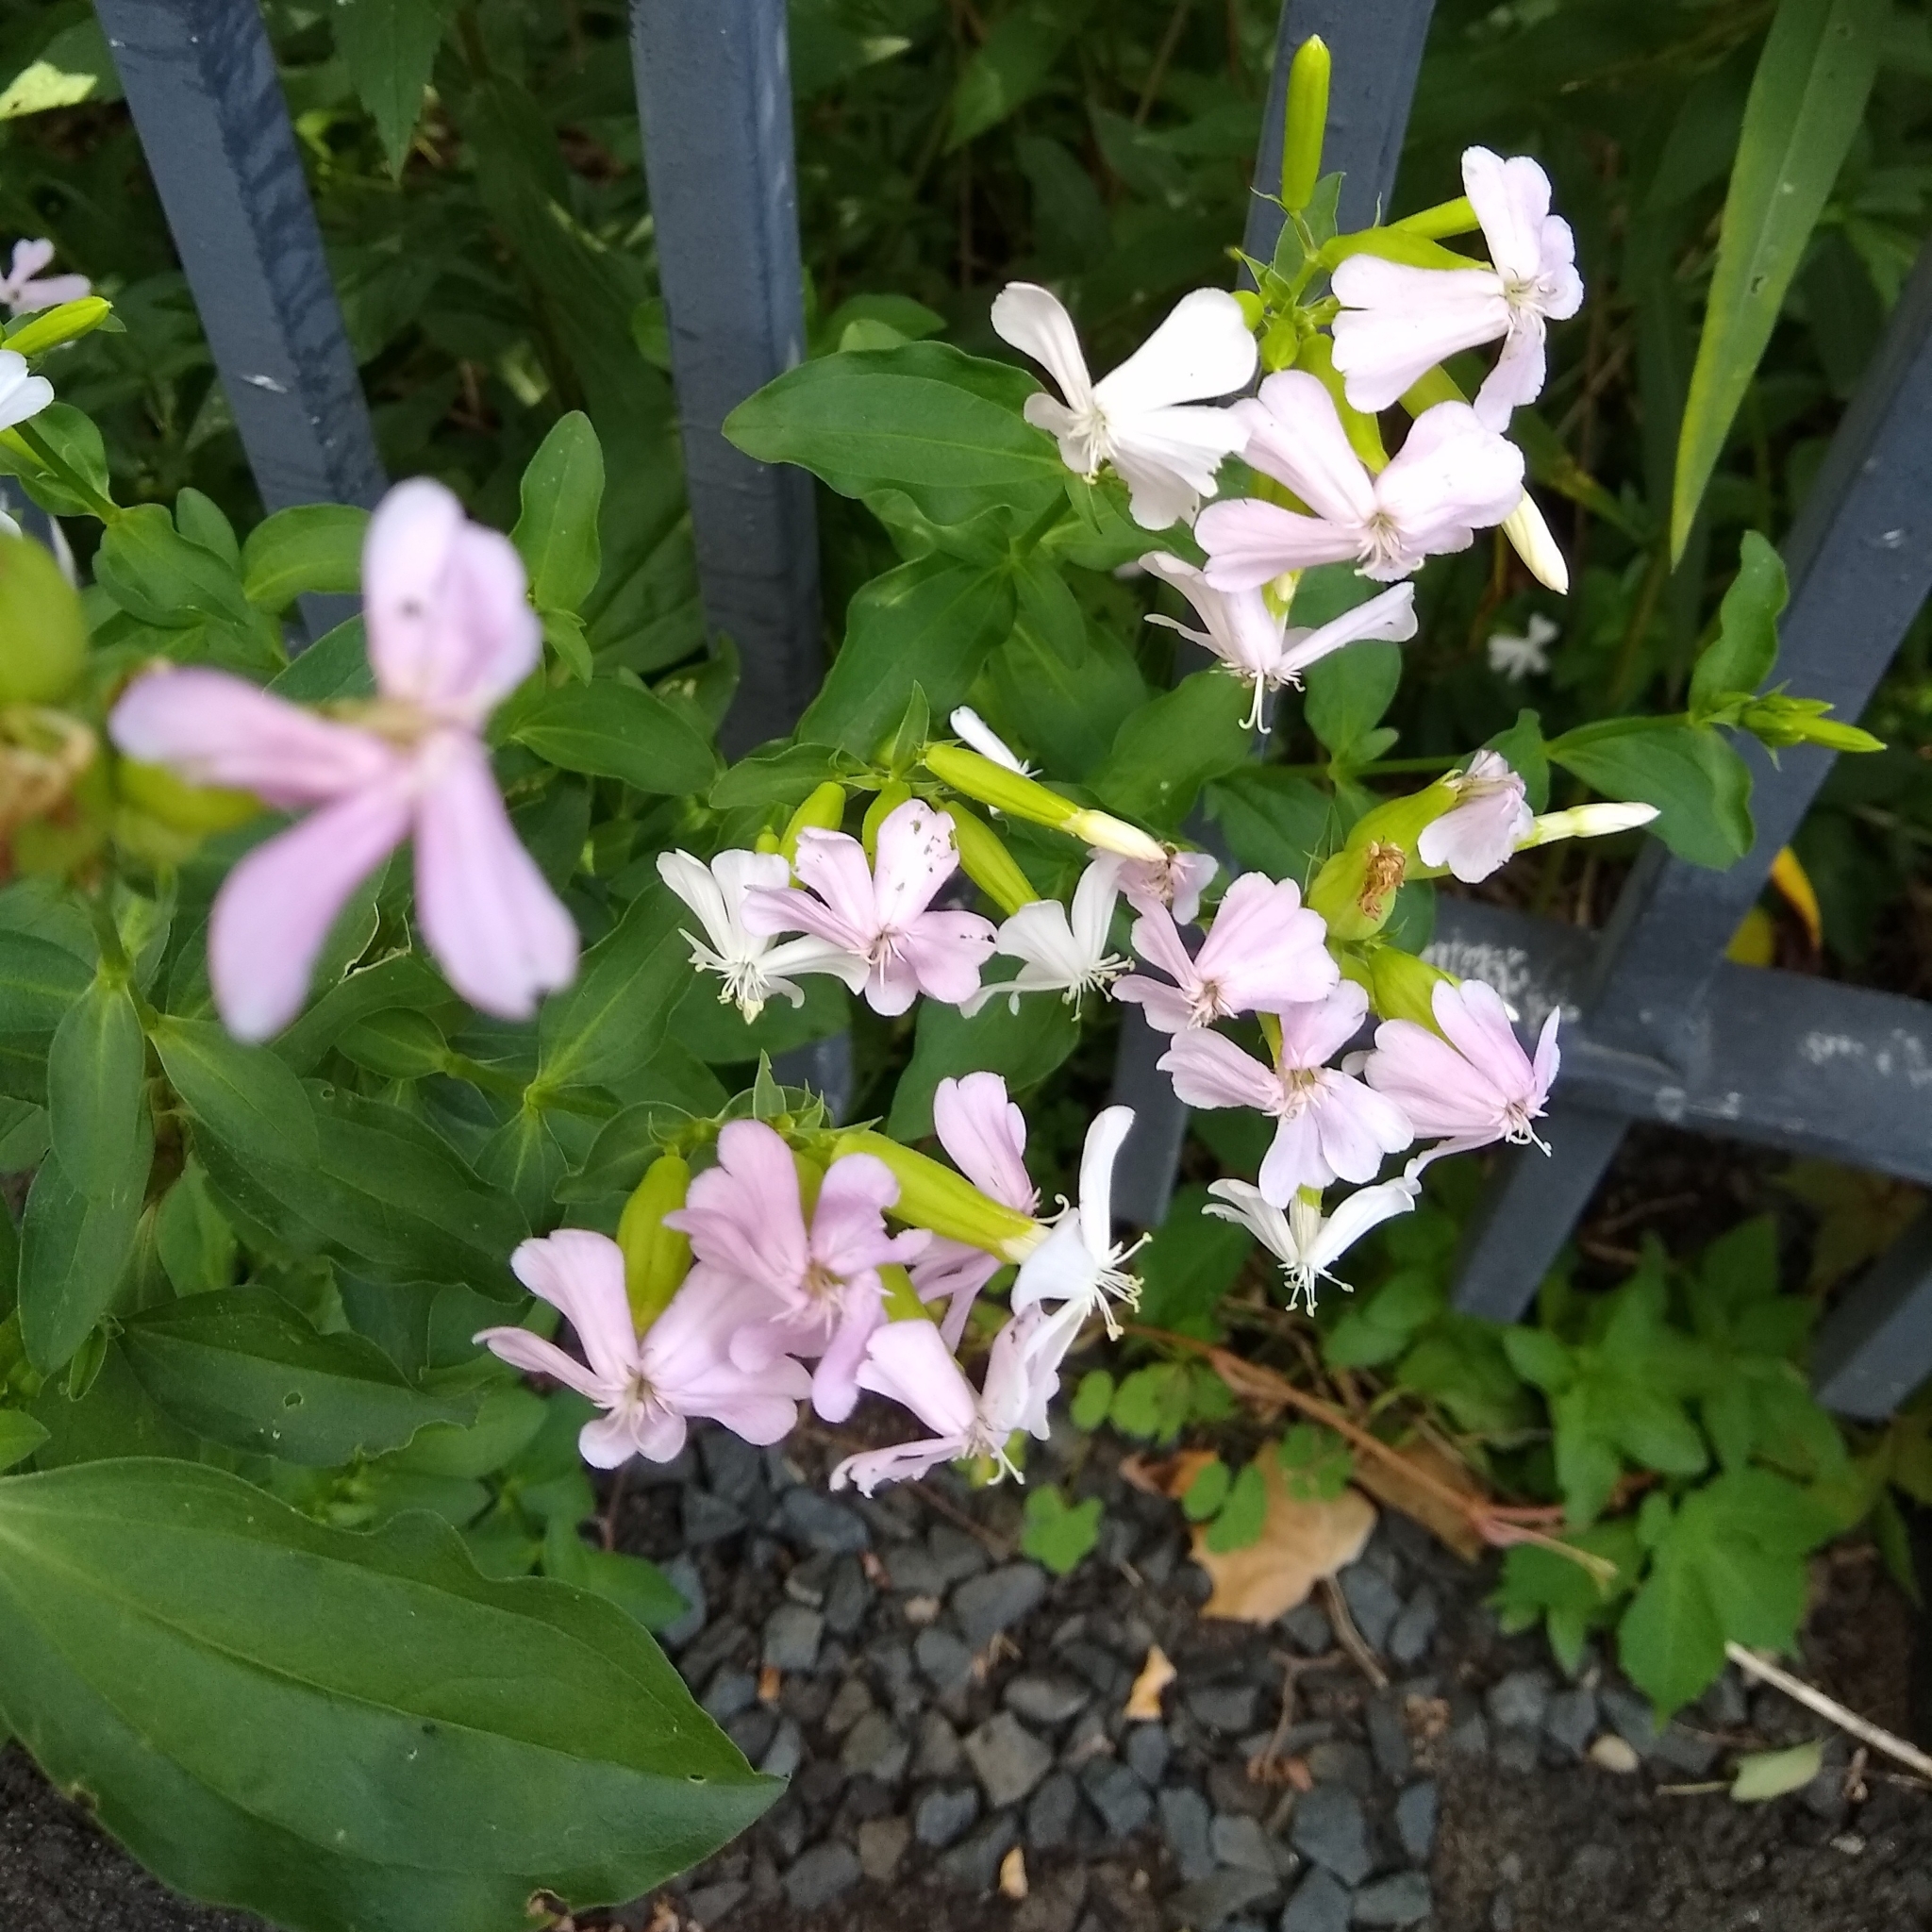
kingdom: Plantae
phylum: Tracheophyta
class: Magnoliopsida
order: Caryophyllales
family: Caryophyllaceae
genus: Saponaria
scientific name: Saponaria officinalis
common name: Soapwort
